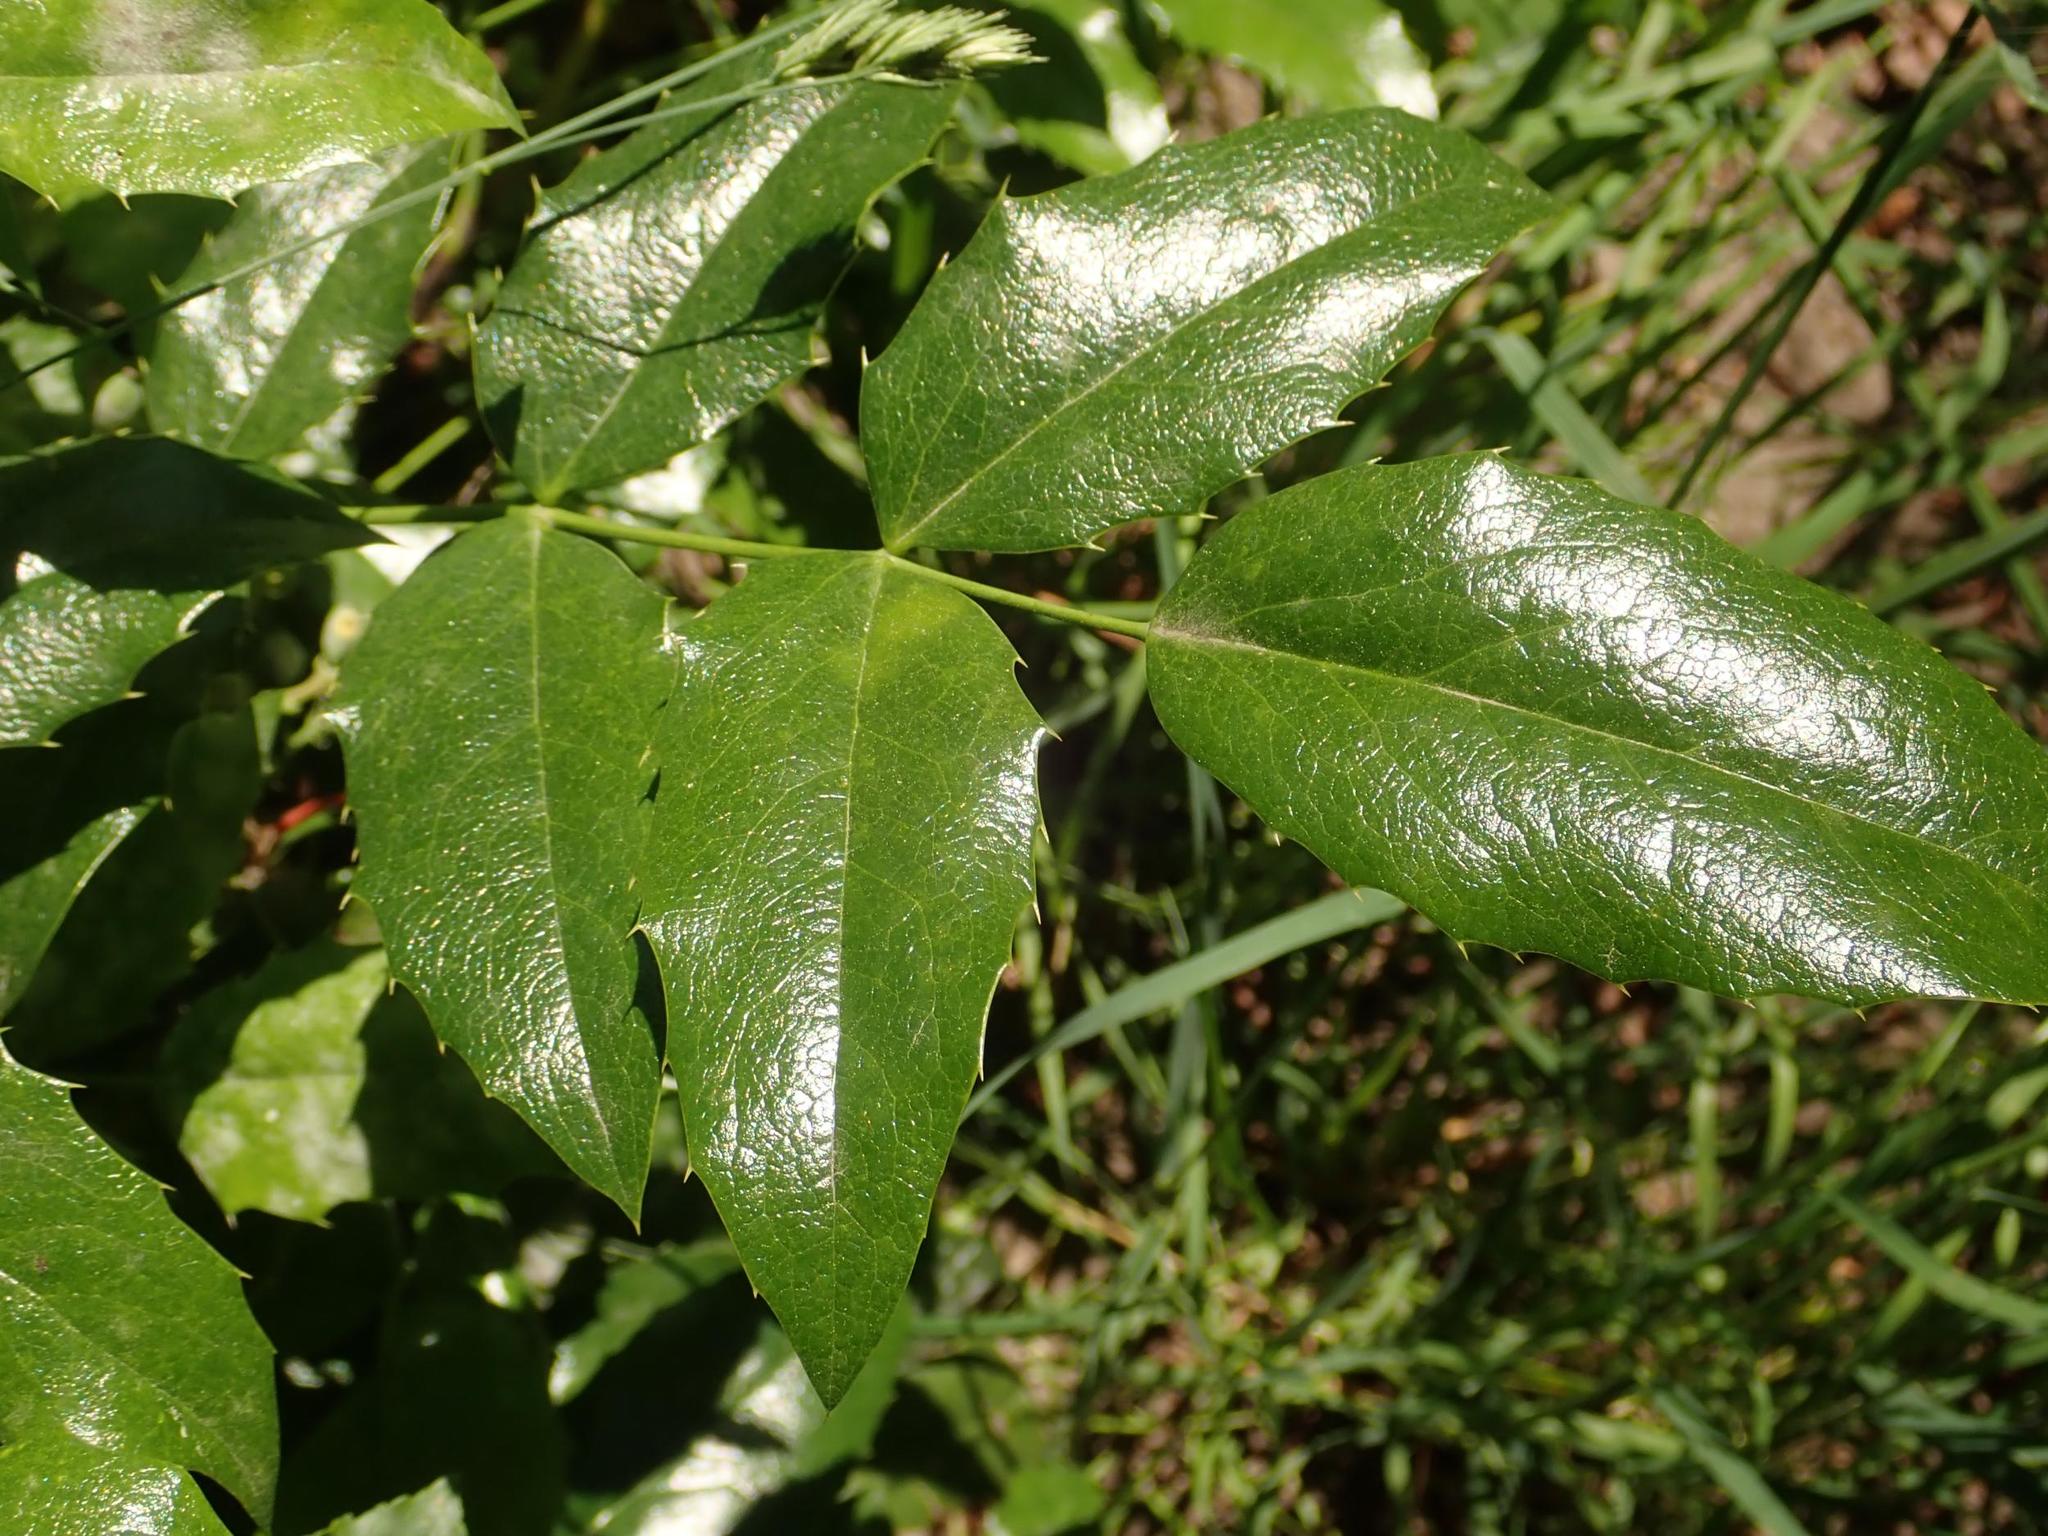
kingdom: Plantae
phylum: Tracheophyta
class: Magnoliopsida
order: Ranunculales
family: Berberidaceae
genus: Mahonia
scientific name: Mahonia aquifolium
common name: Oregon-grape
